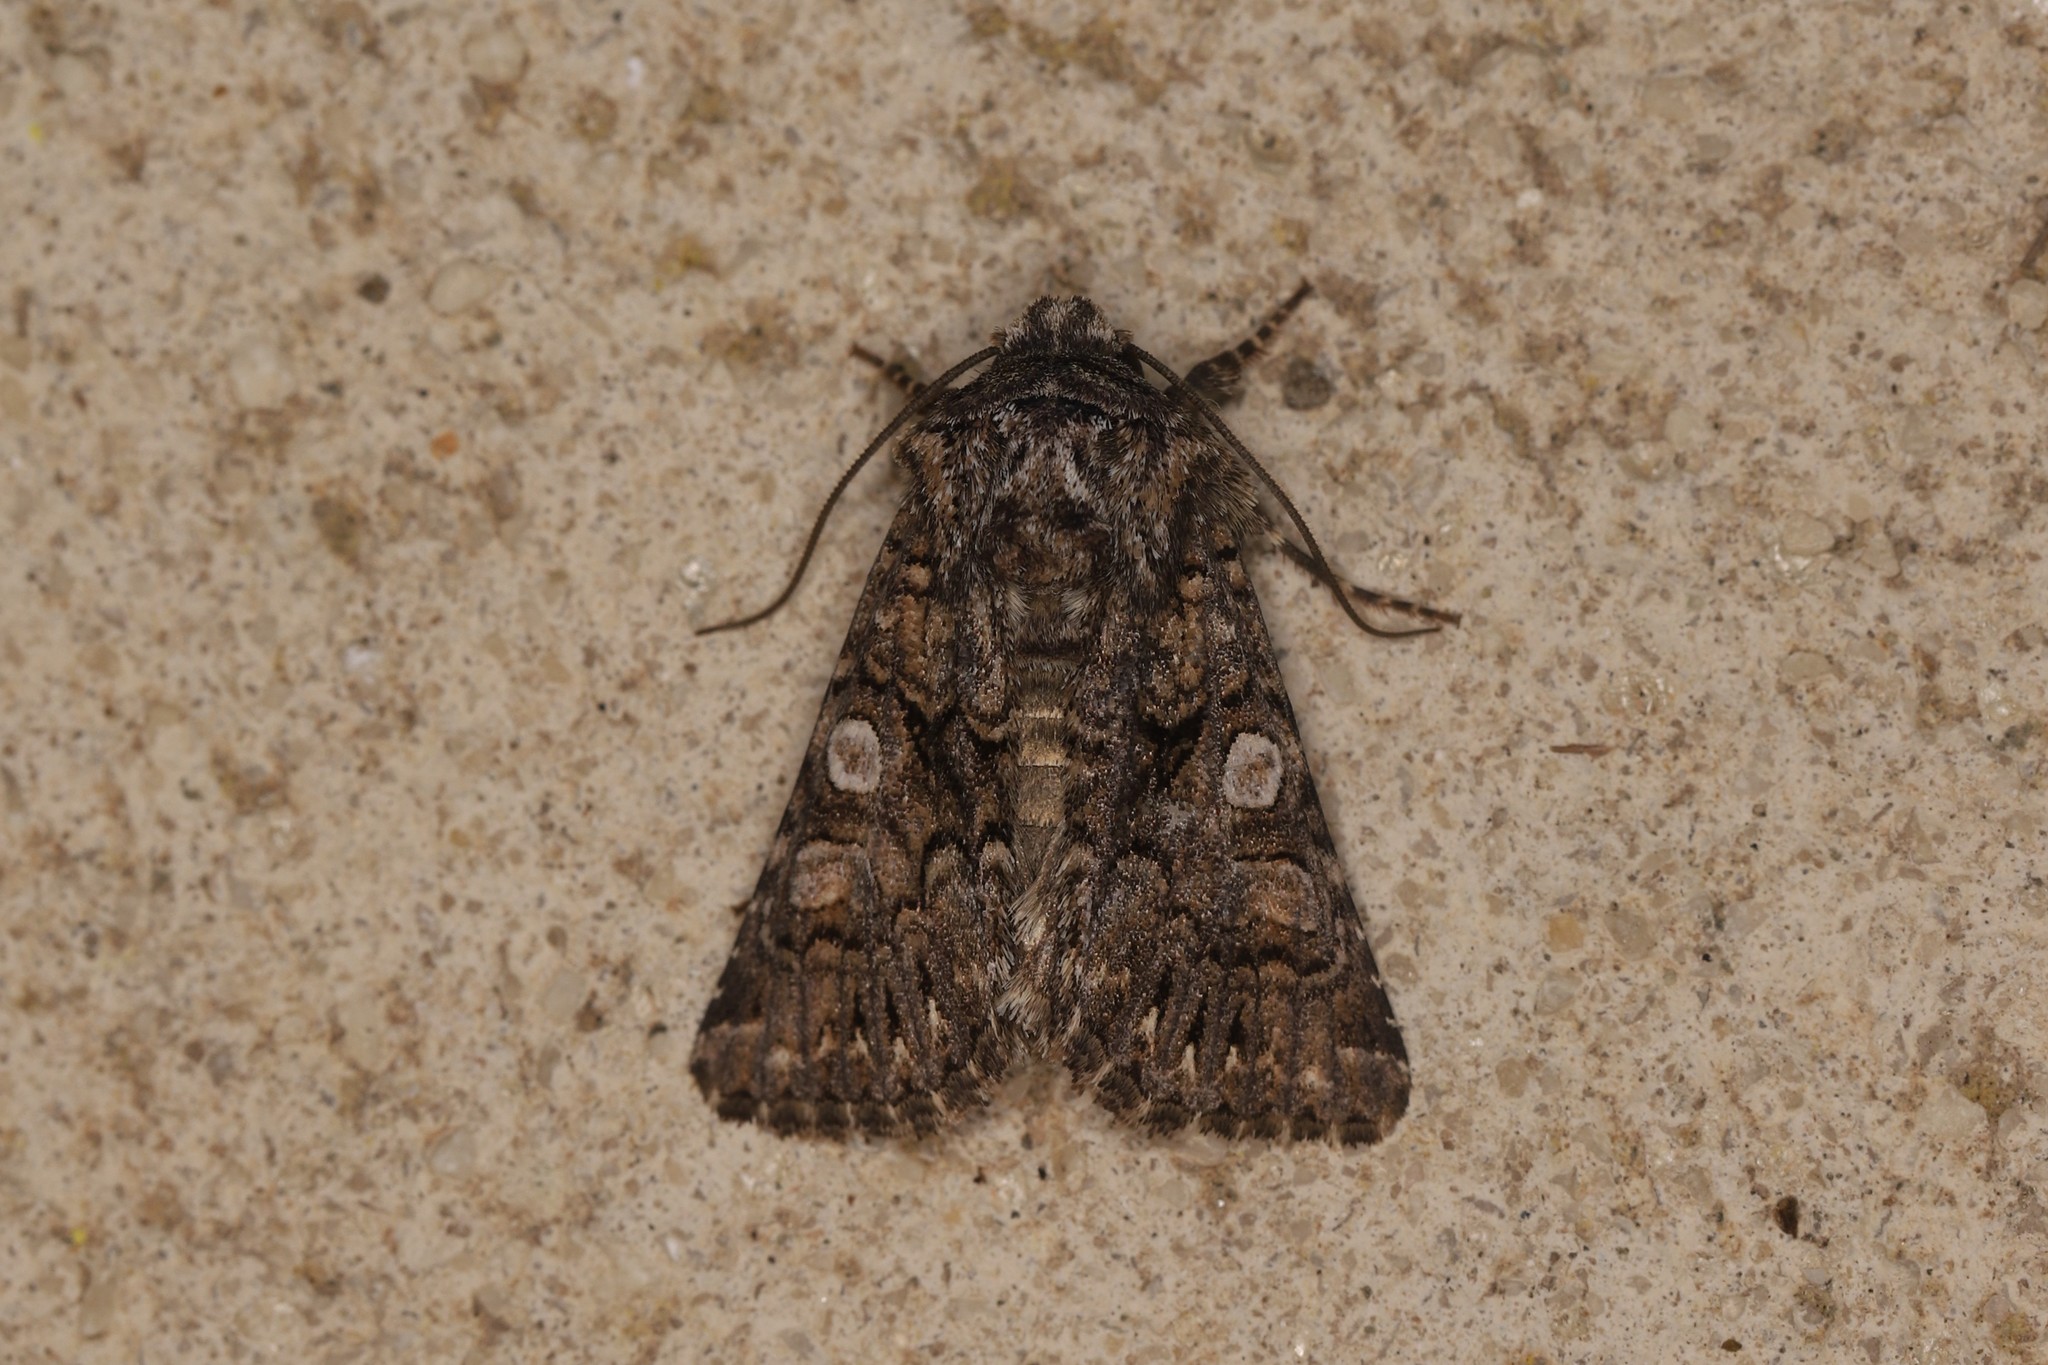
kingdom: Animalia
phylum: Arthropoda
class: Insecta
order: Lepidoptera
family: Noctuidae
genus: Hadena
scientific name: Hadena sancta
